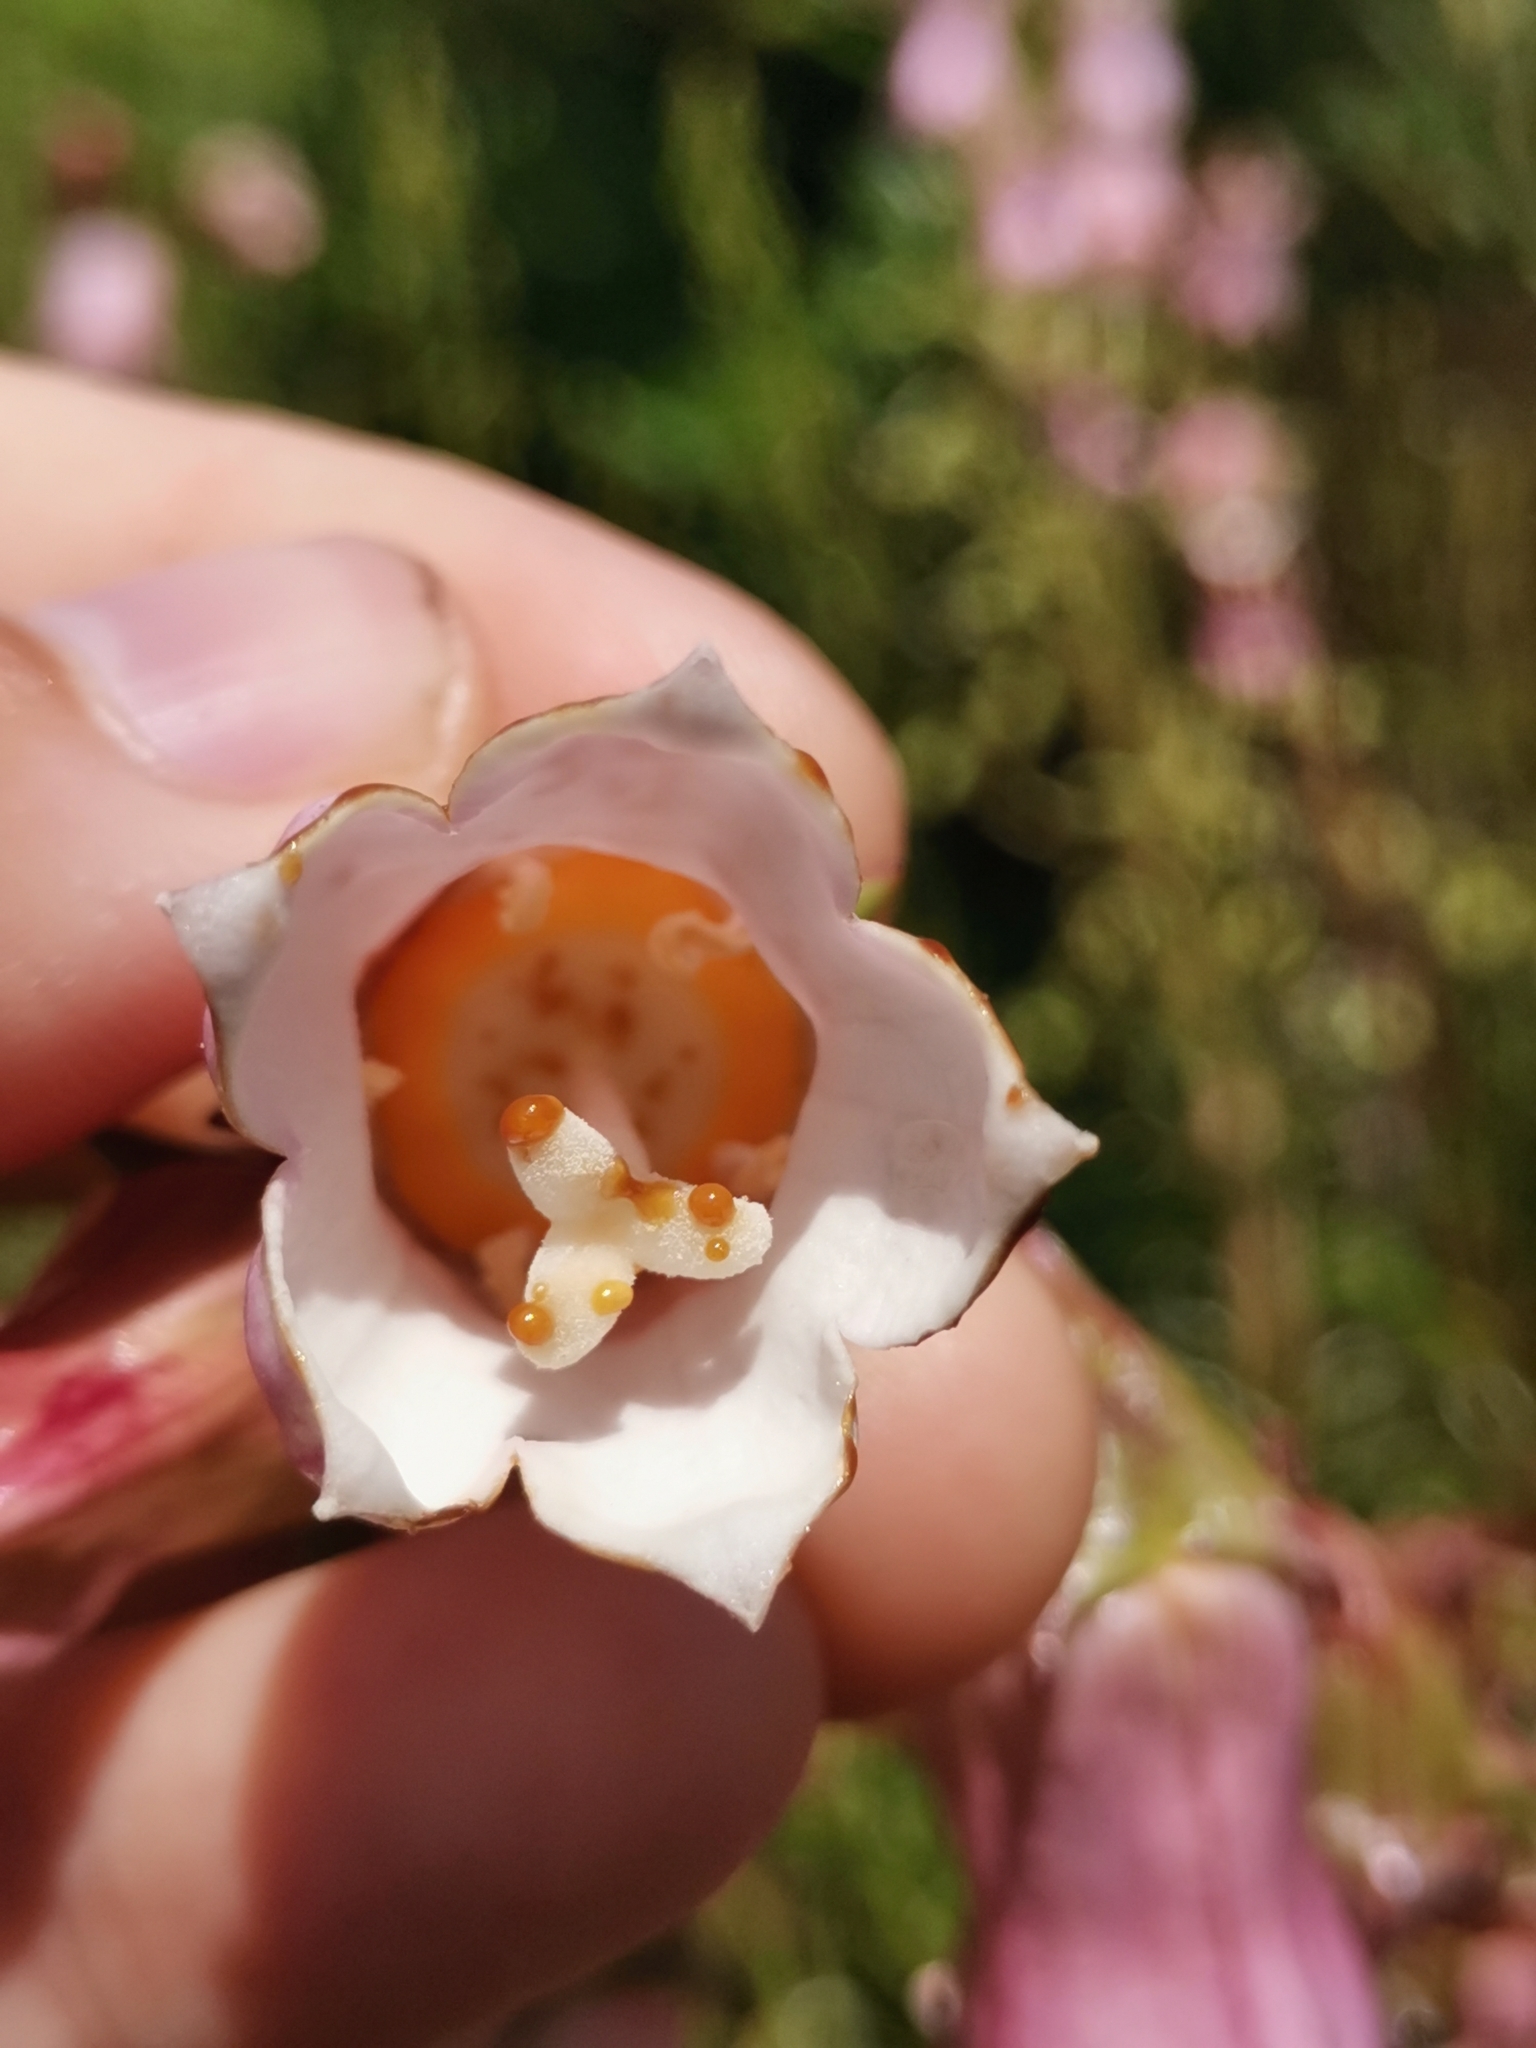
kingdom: Plantae
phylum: Tracheophyta
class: Magnoliopsida
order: Asterales
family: Campanulaceae
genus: Campanula
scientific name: Campanula vidalii
